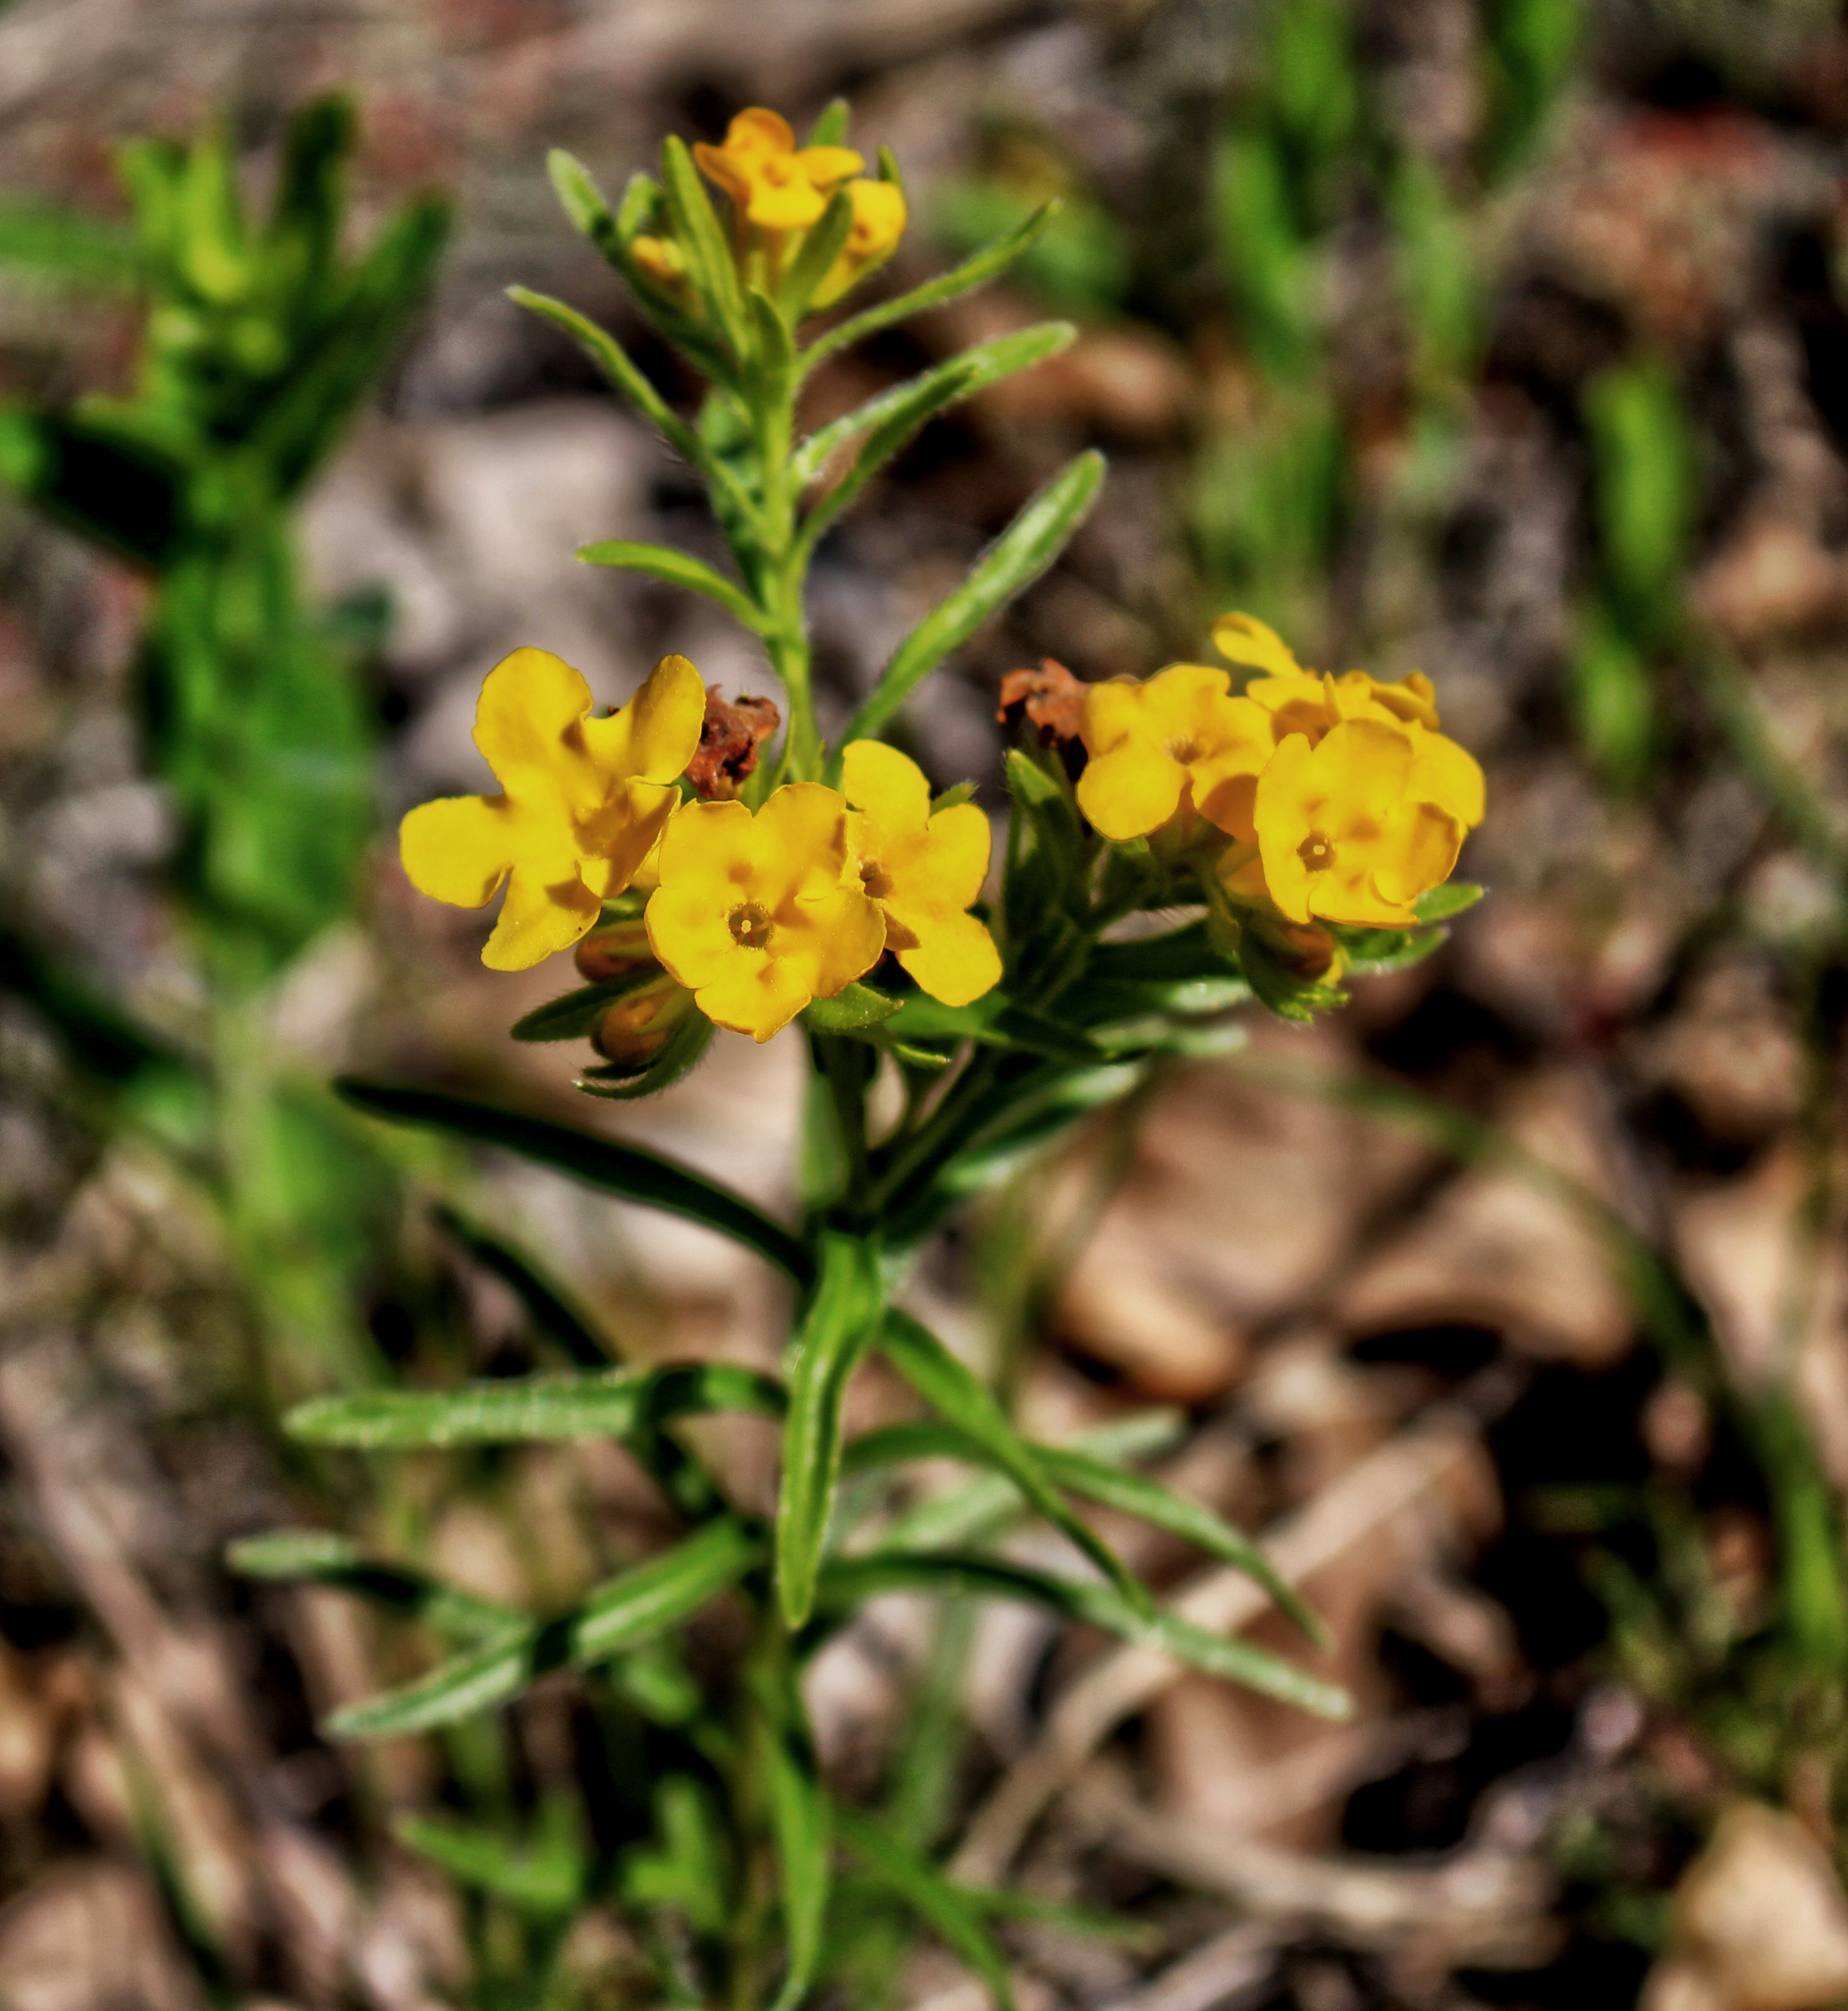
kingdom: Plantae
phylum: Tracheophyta
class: Magnoliopsida
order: Boraginales
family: Boraginaceae
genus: Lithospermum
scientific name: Lithospermum caroliniense
